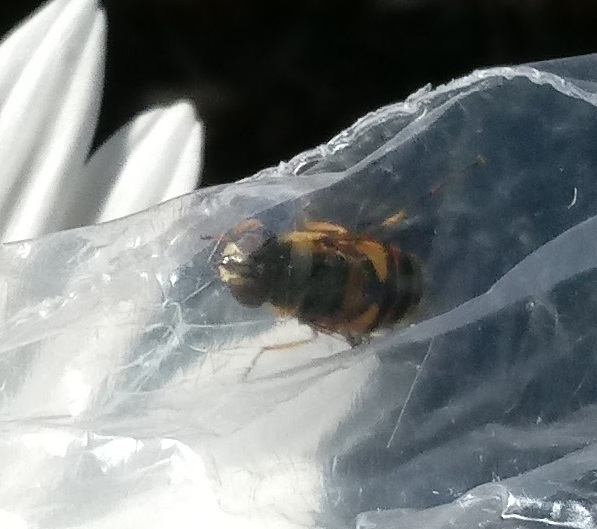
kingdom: Animalia
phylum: Arthropoda
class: Insecta
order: Diptera
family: Syrphidae
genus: Eristalis
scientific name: Eristalis transversa
